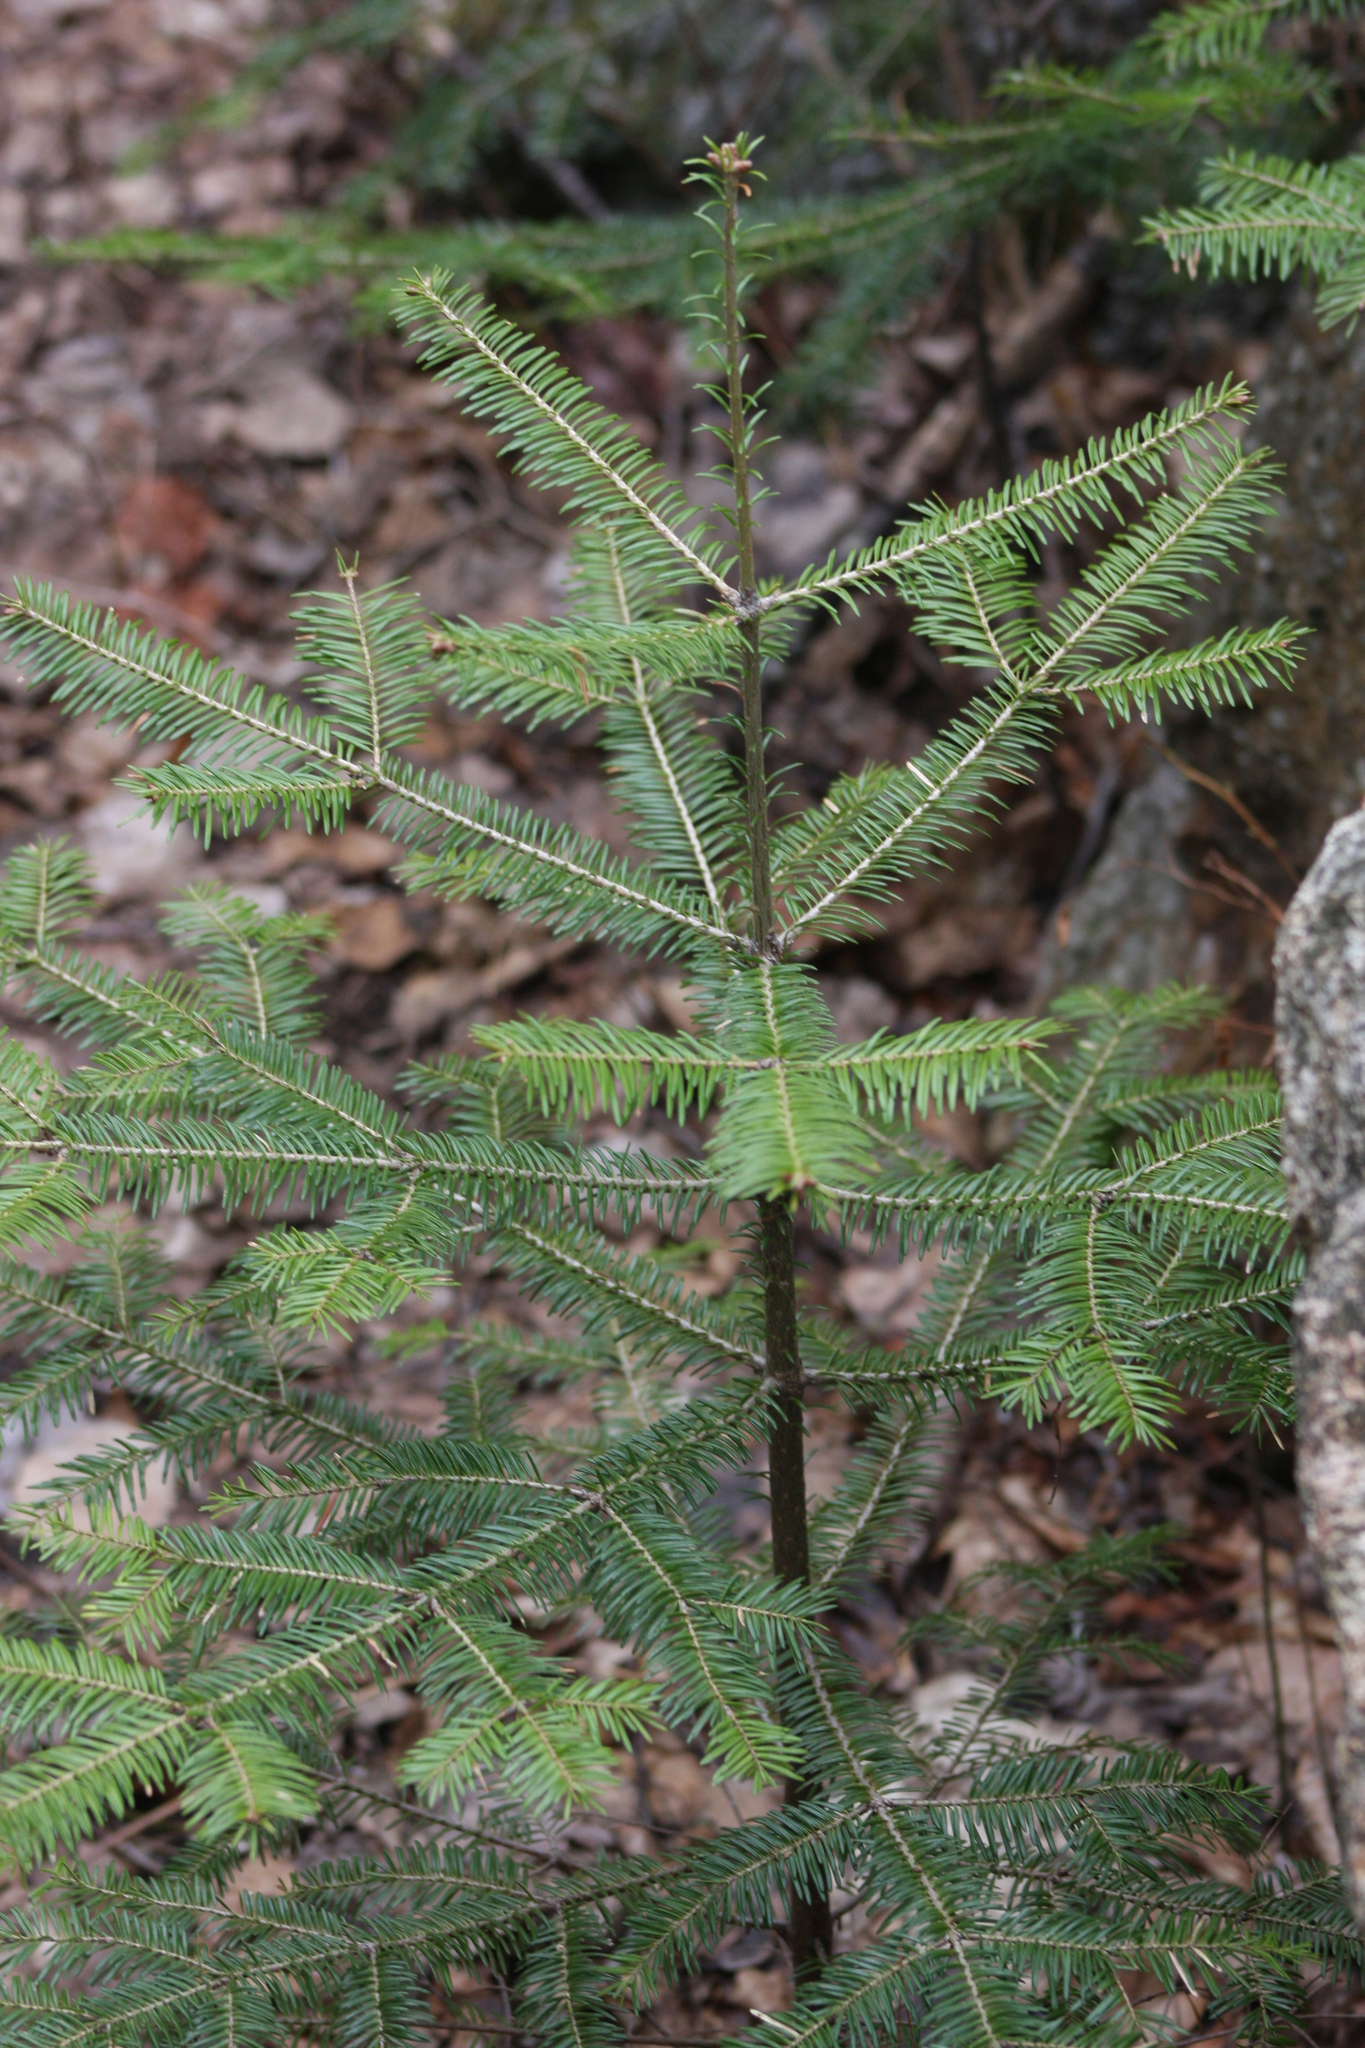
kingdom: Plantae
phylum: Tracheophyta
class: Pinopsida
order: Pinales
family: Pinaceae
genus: Abies
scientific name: Abies balsamea
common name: Balsam fir
